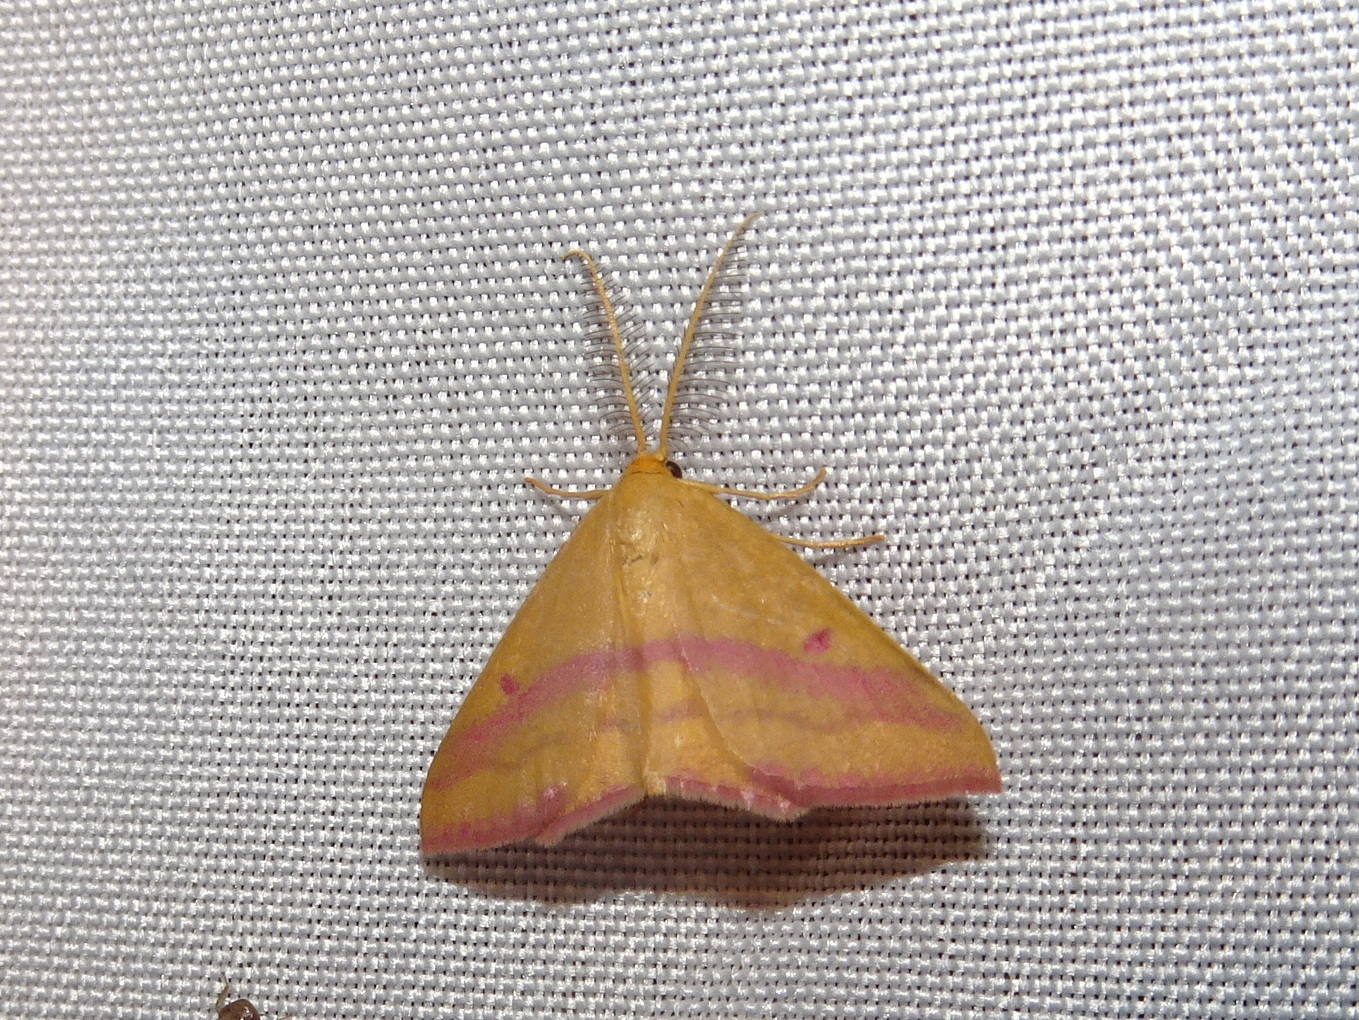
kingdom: Animalia
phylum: Arthropoda
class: Insecta
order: Lepidoptera
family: Geometridae
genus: Haematopis
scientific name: Haematopis grataria
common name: Chickweed geometer
